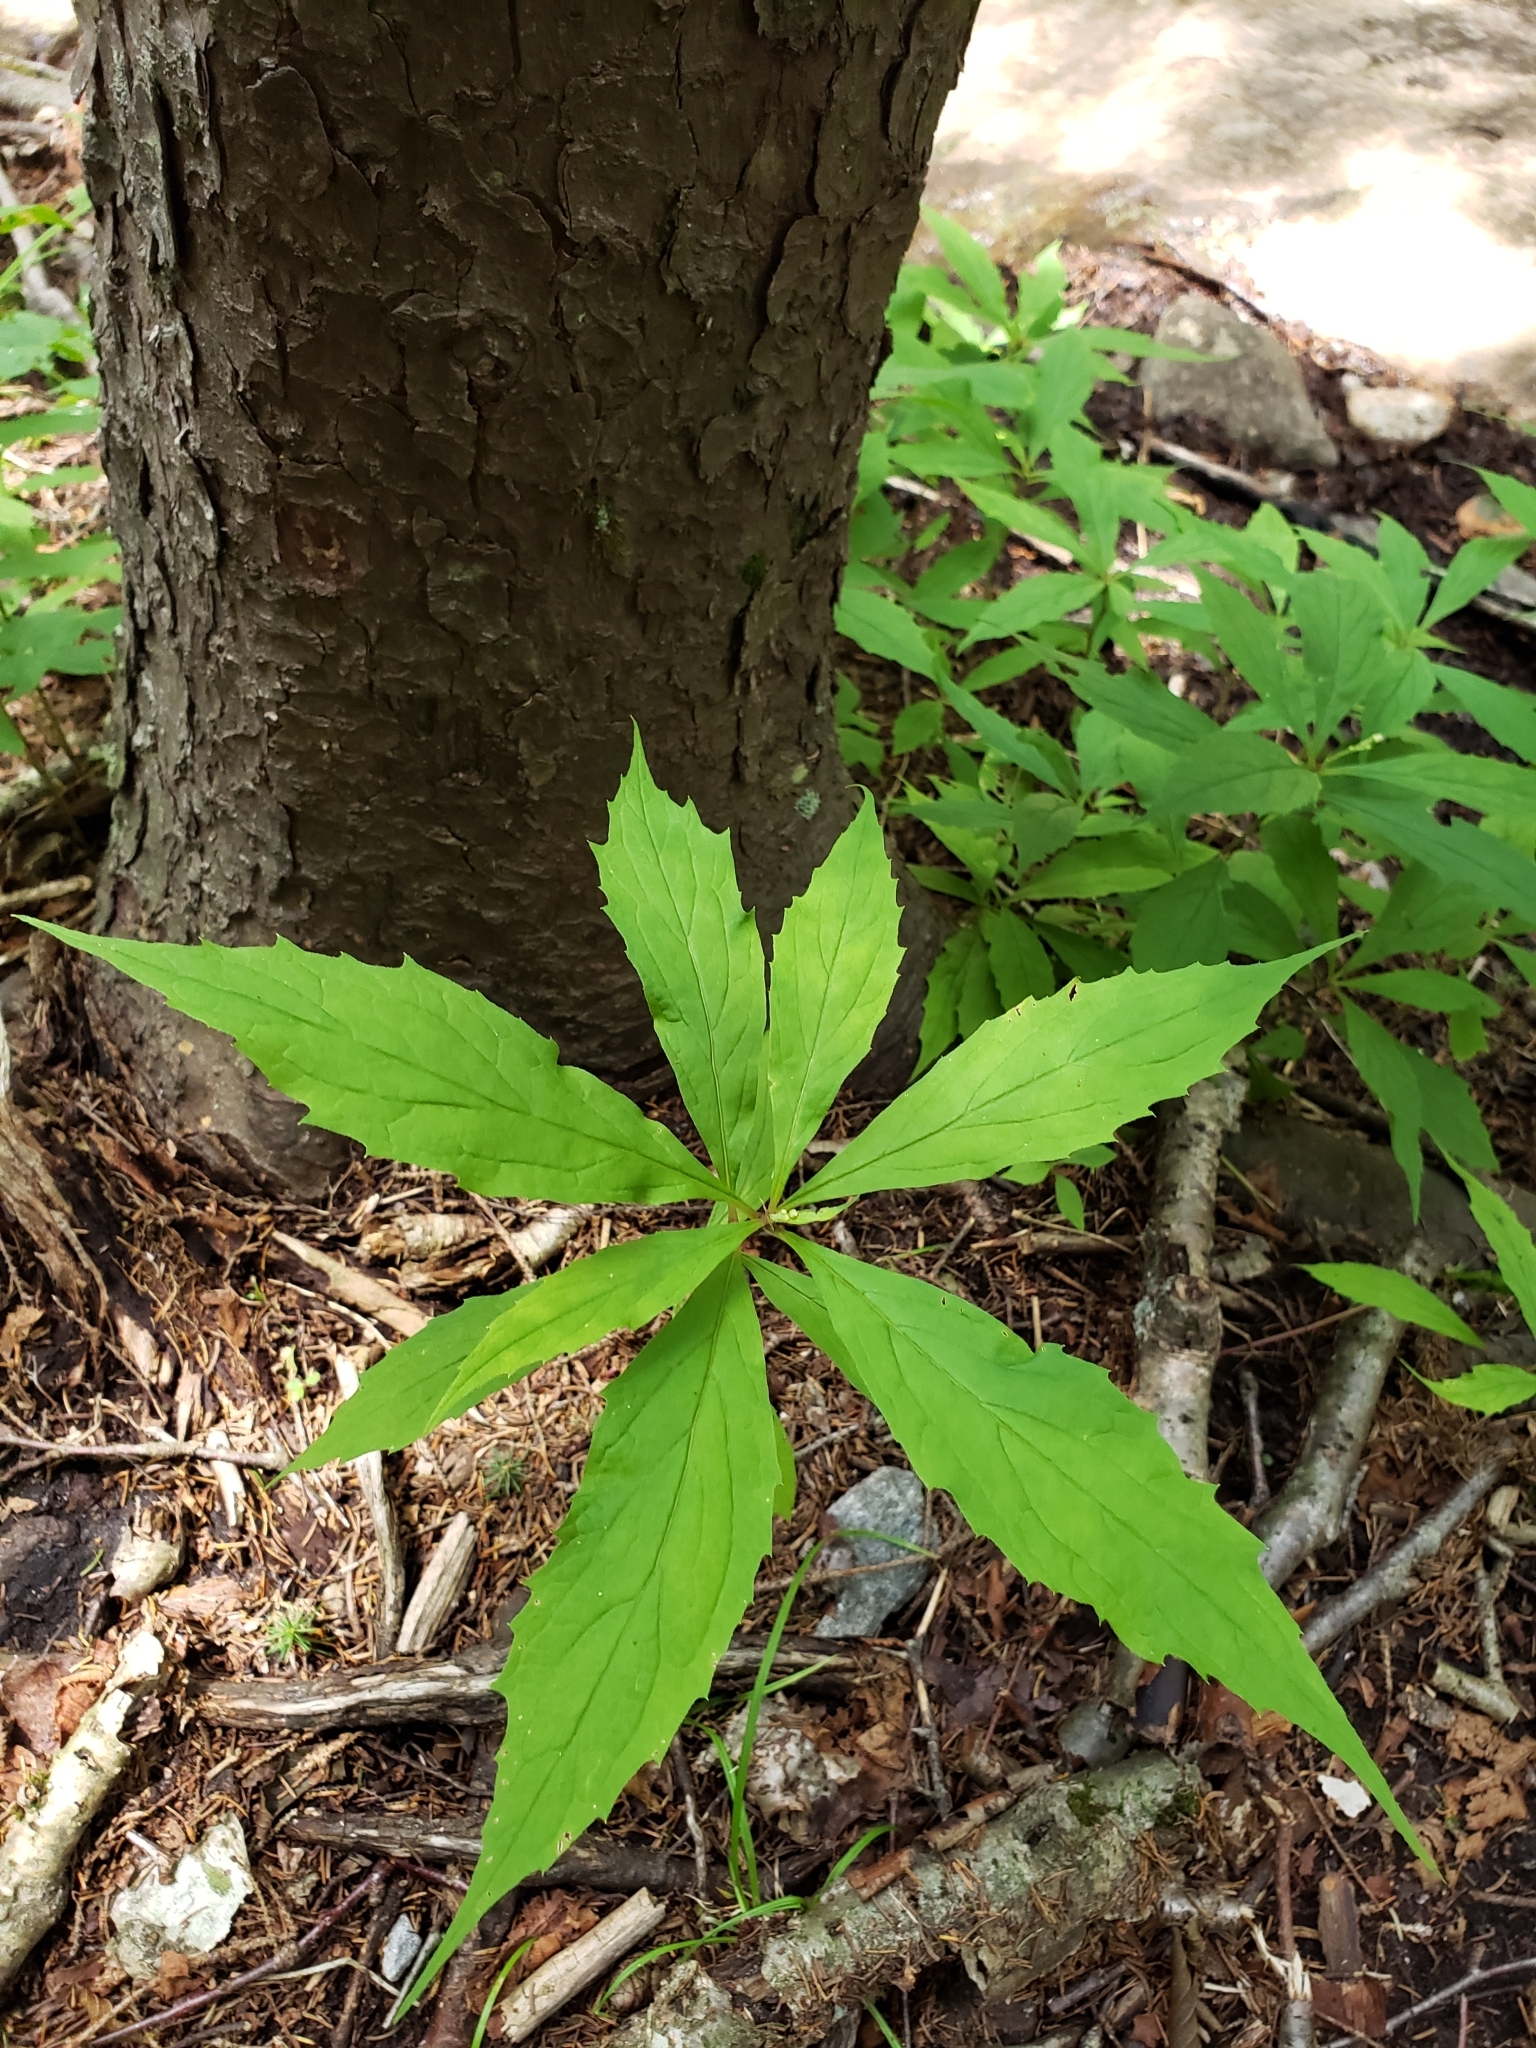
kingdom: Plantae
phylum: Tracheophyta
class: Magnoliopsida
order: Asterales
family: Asteraceae
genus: Oclemena
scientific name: Oclemena acuminata
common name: Mountain aster
